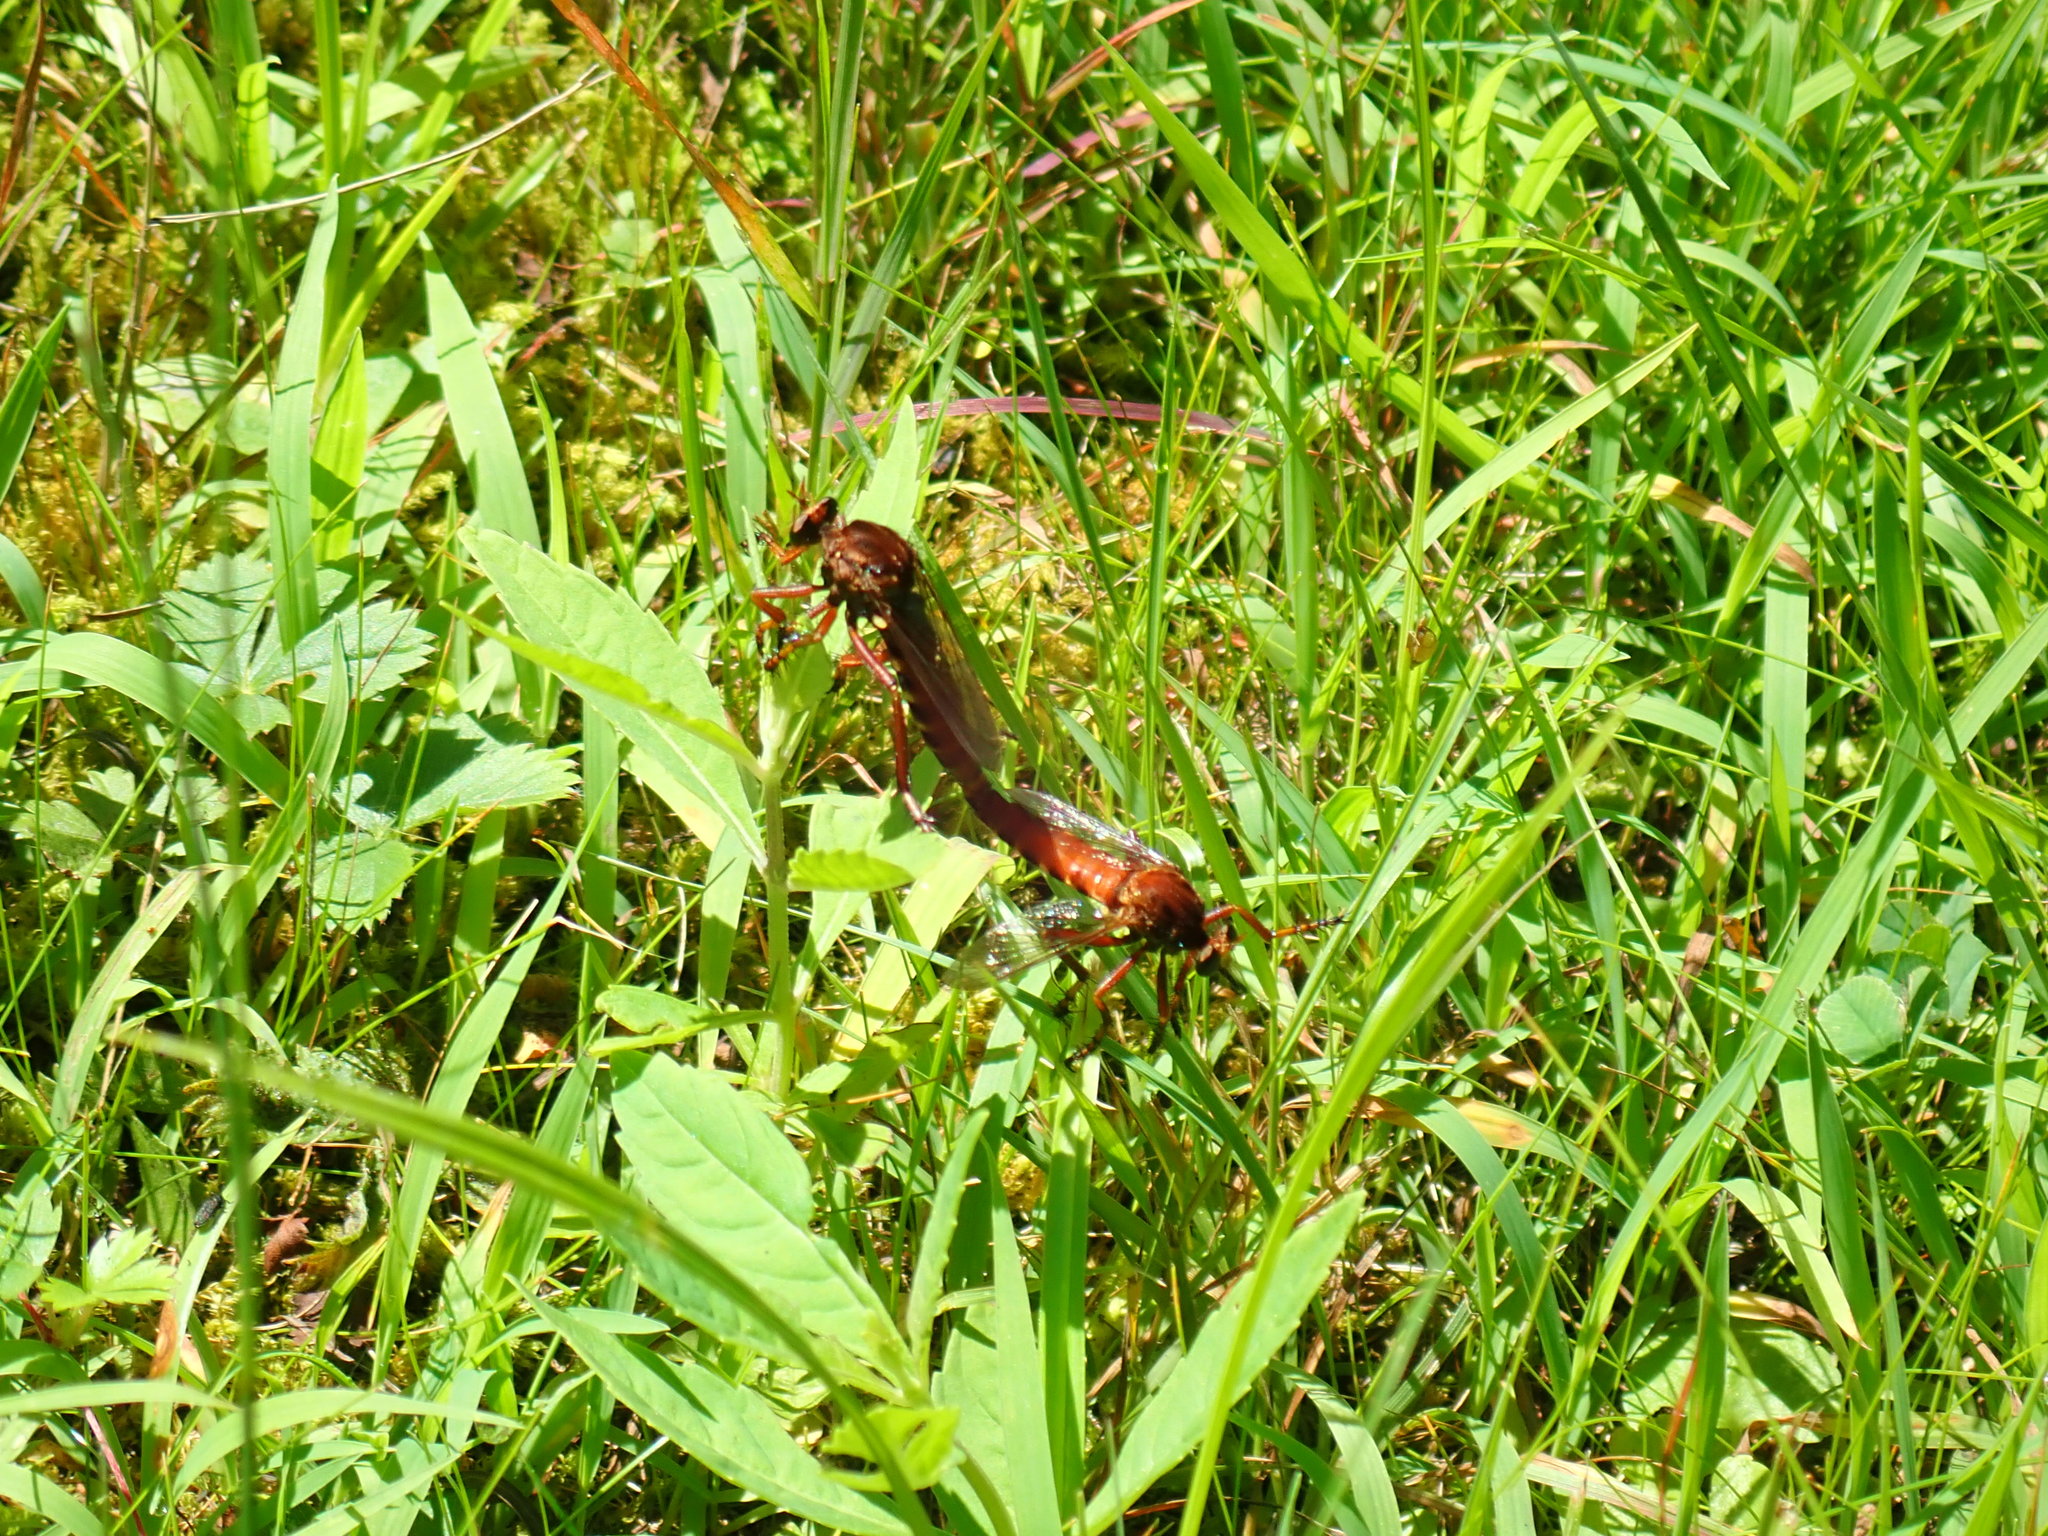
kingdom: Animalia
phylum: Arthropoda
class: Insecta
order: Diptera
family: Asilidae
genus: Diogmites
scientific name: Diogmites basalis
